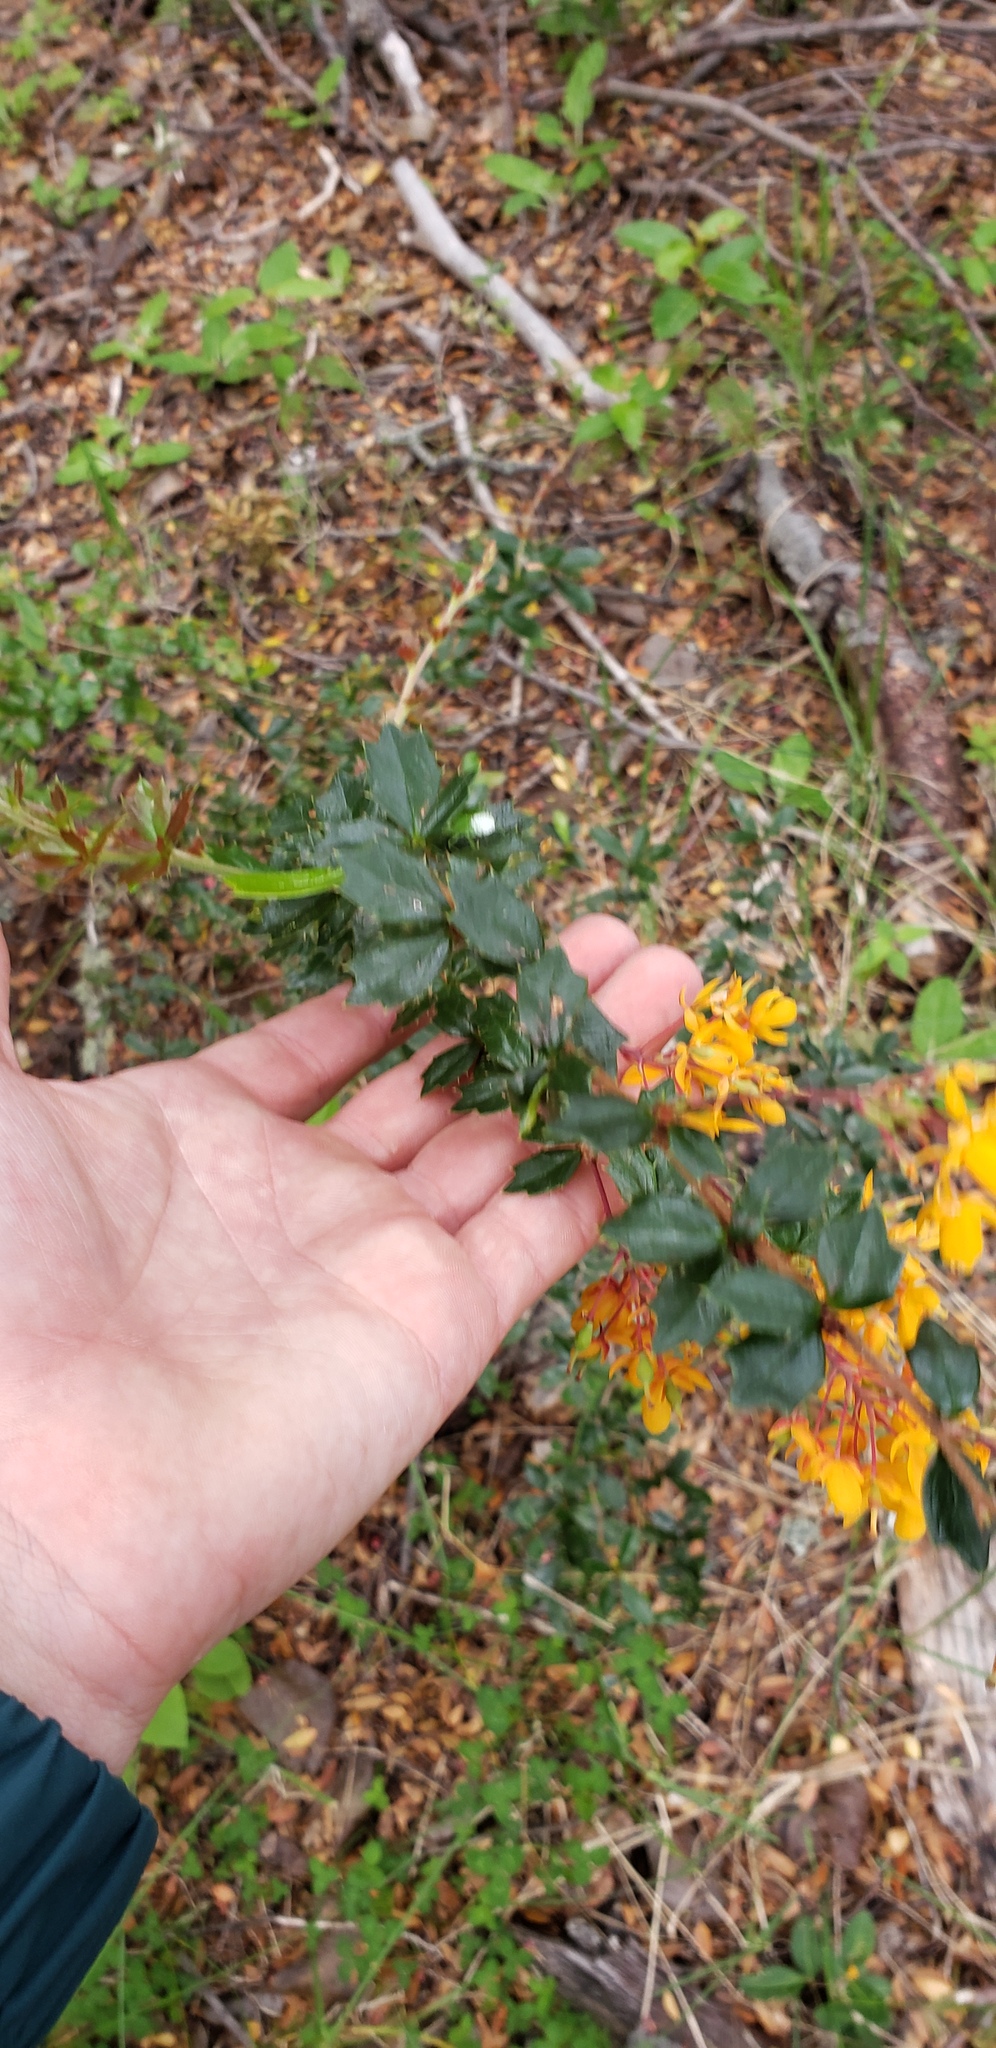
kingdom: Plantae
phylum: Tracheophyta
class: Magnoliopsida
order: Ranunculales
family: Berberidaceae
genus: Berberis
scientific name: Berberis darwinii
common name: Darwin's barberry
